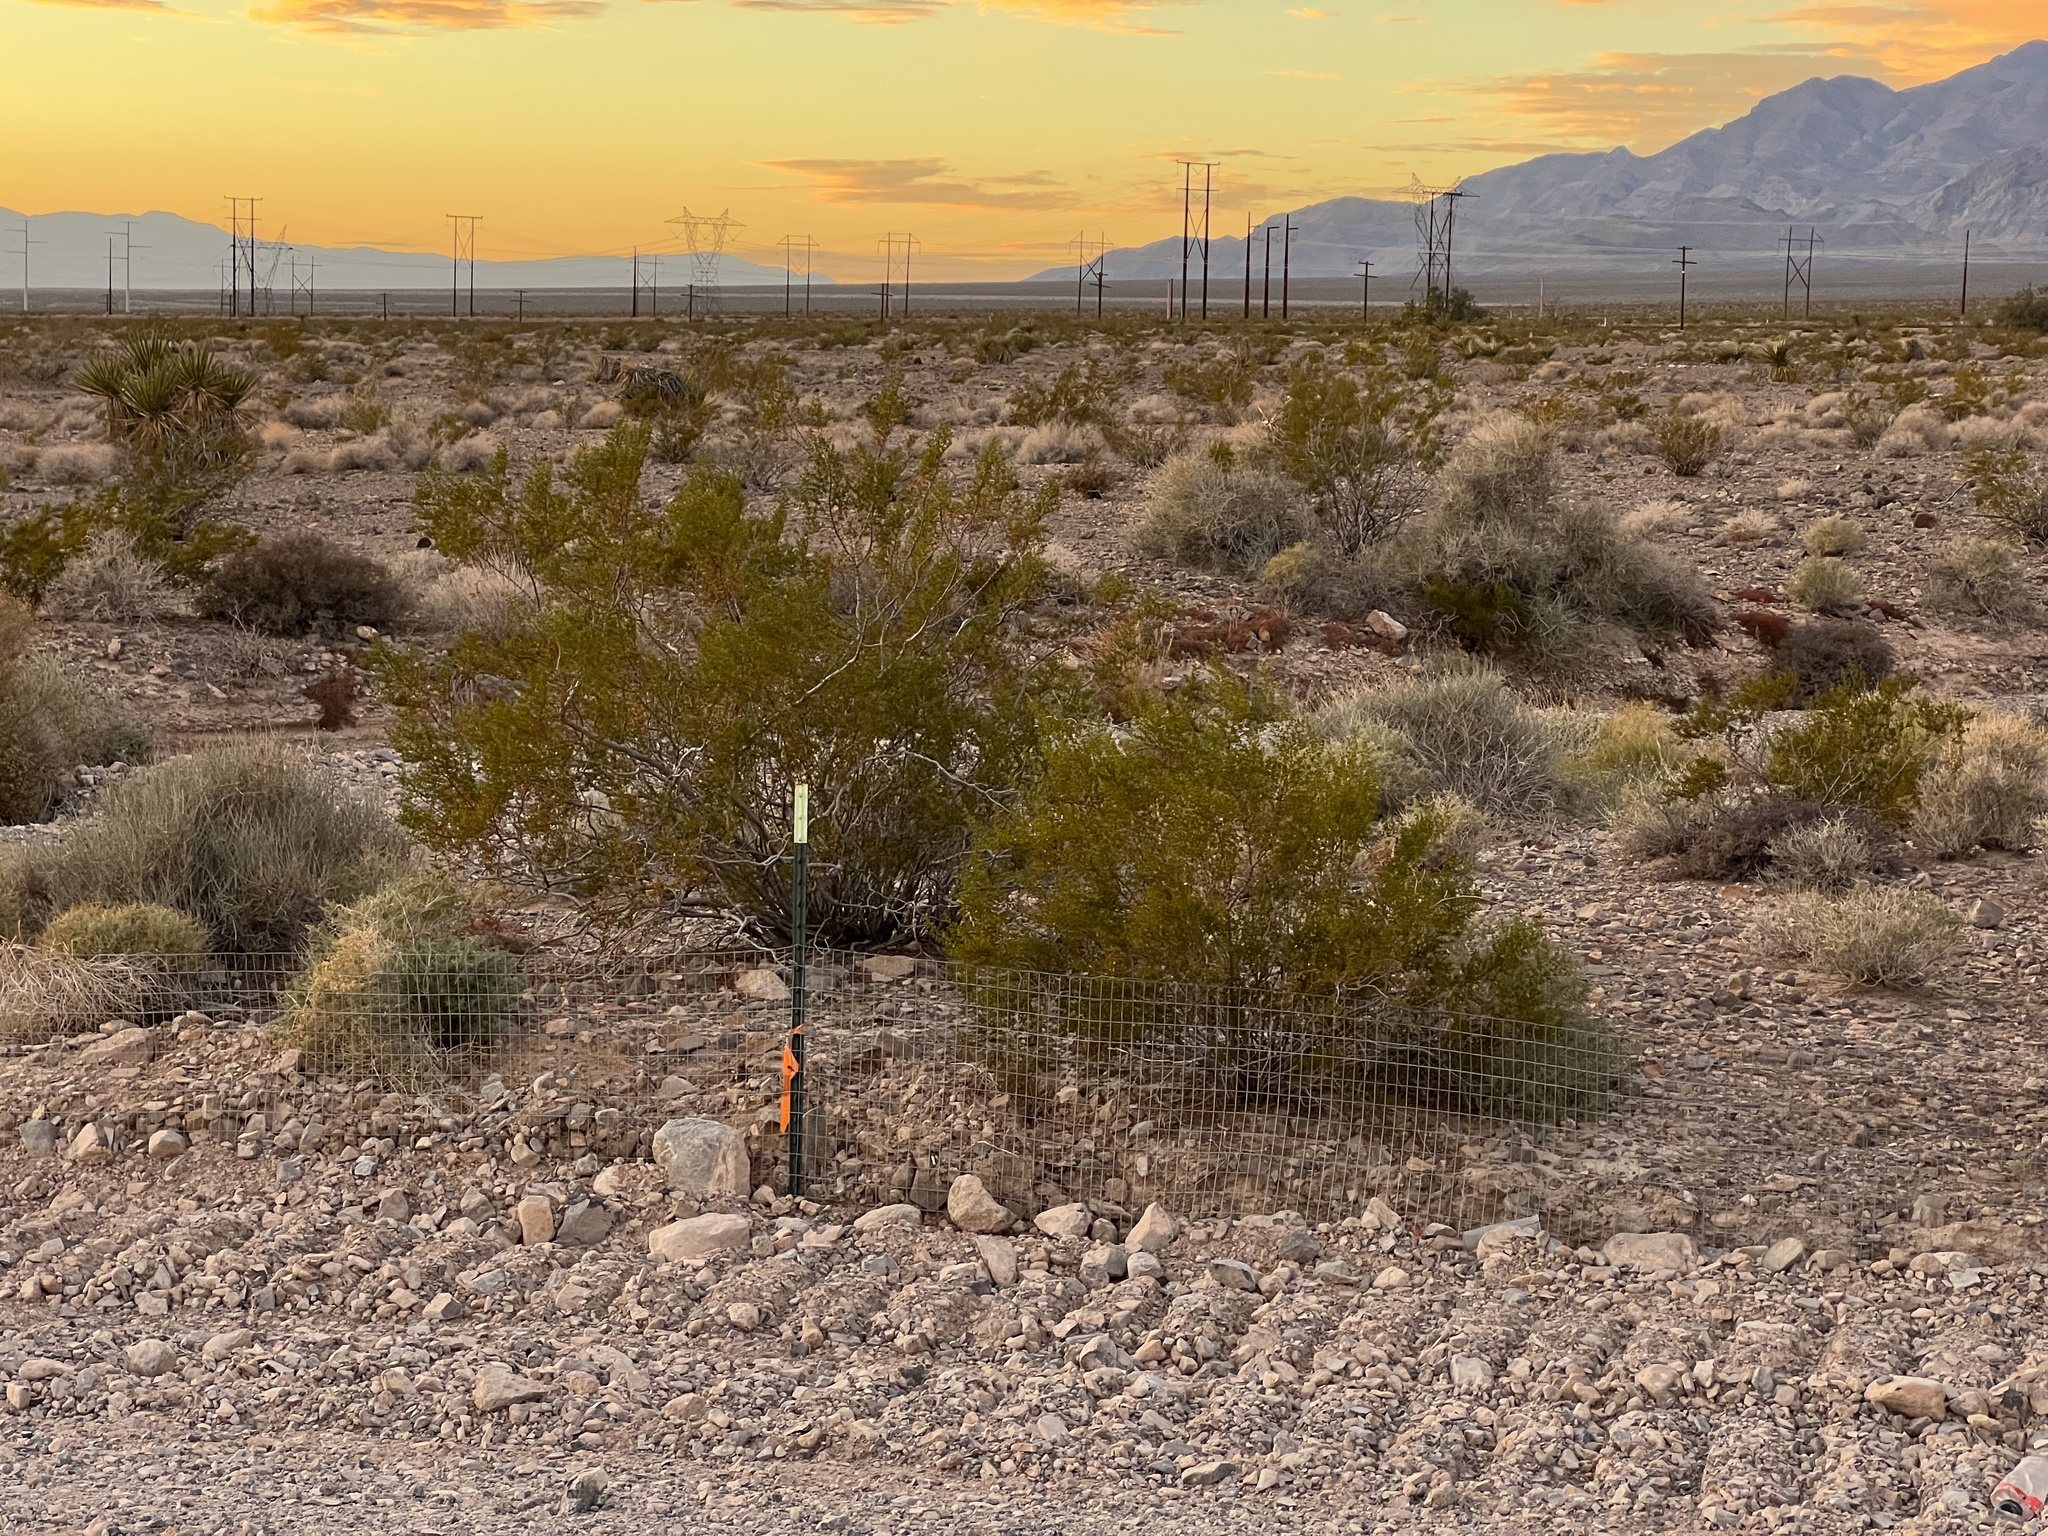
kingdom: Plantae
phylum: Tracheophyta
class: Magnoliopsida
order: Zygophyllales
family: Zygophyllaceae
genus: Larrea
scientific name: Larrea tridentata
